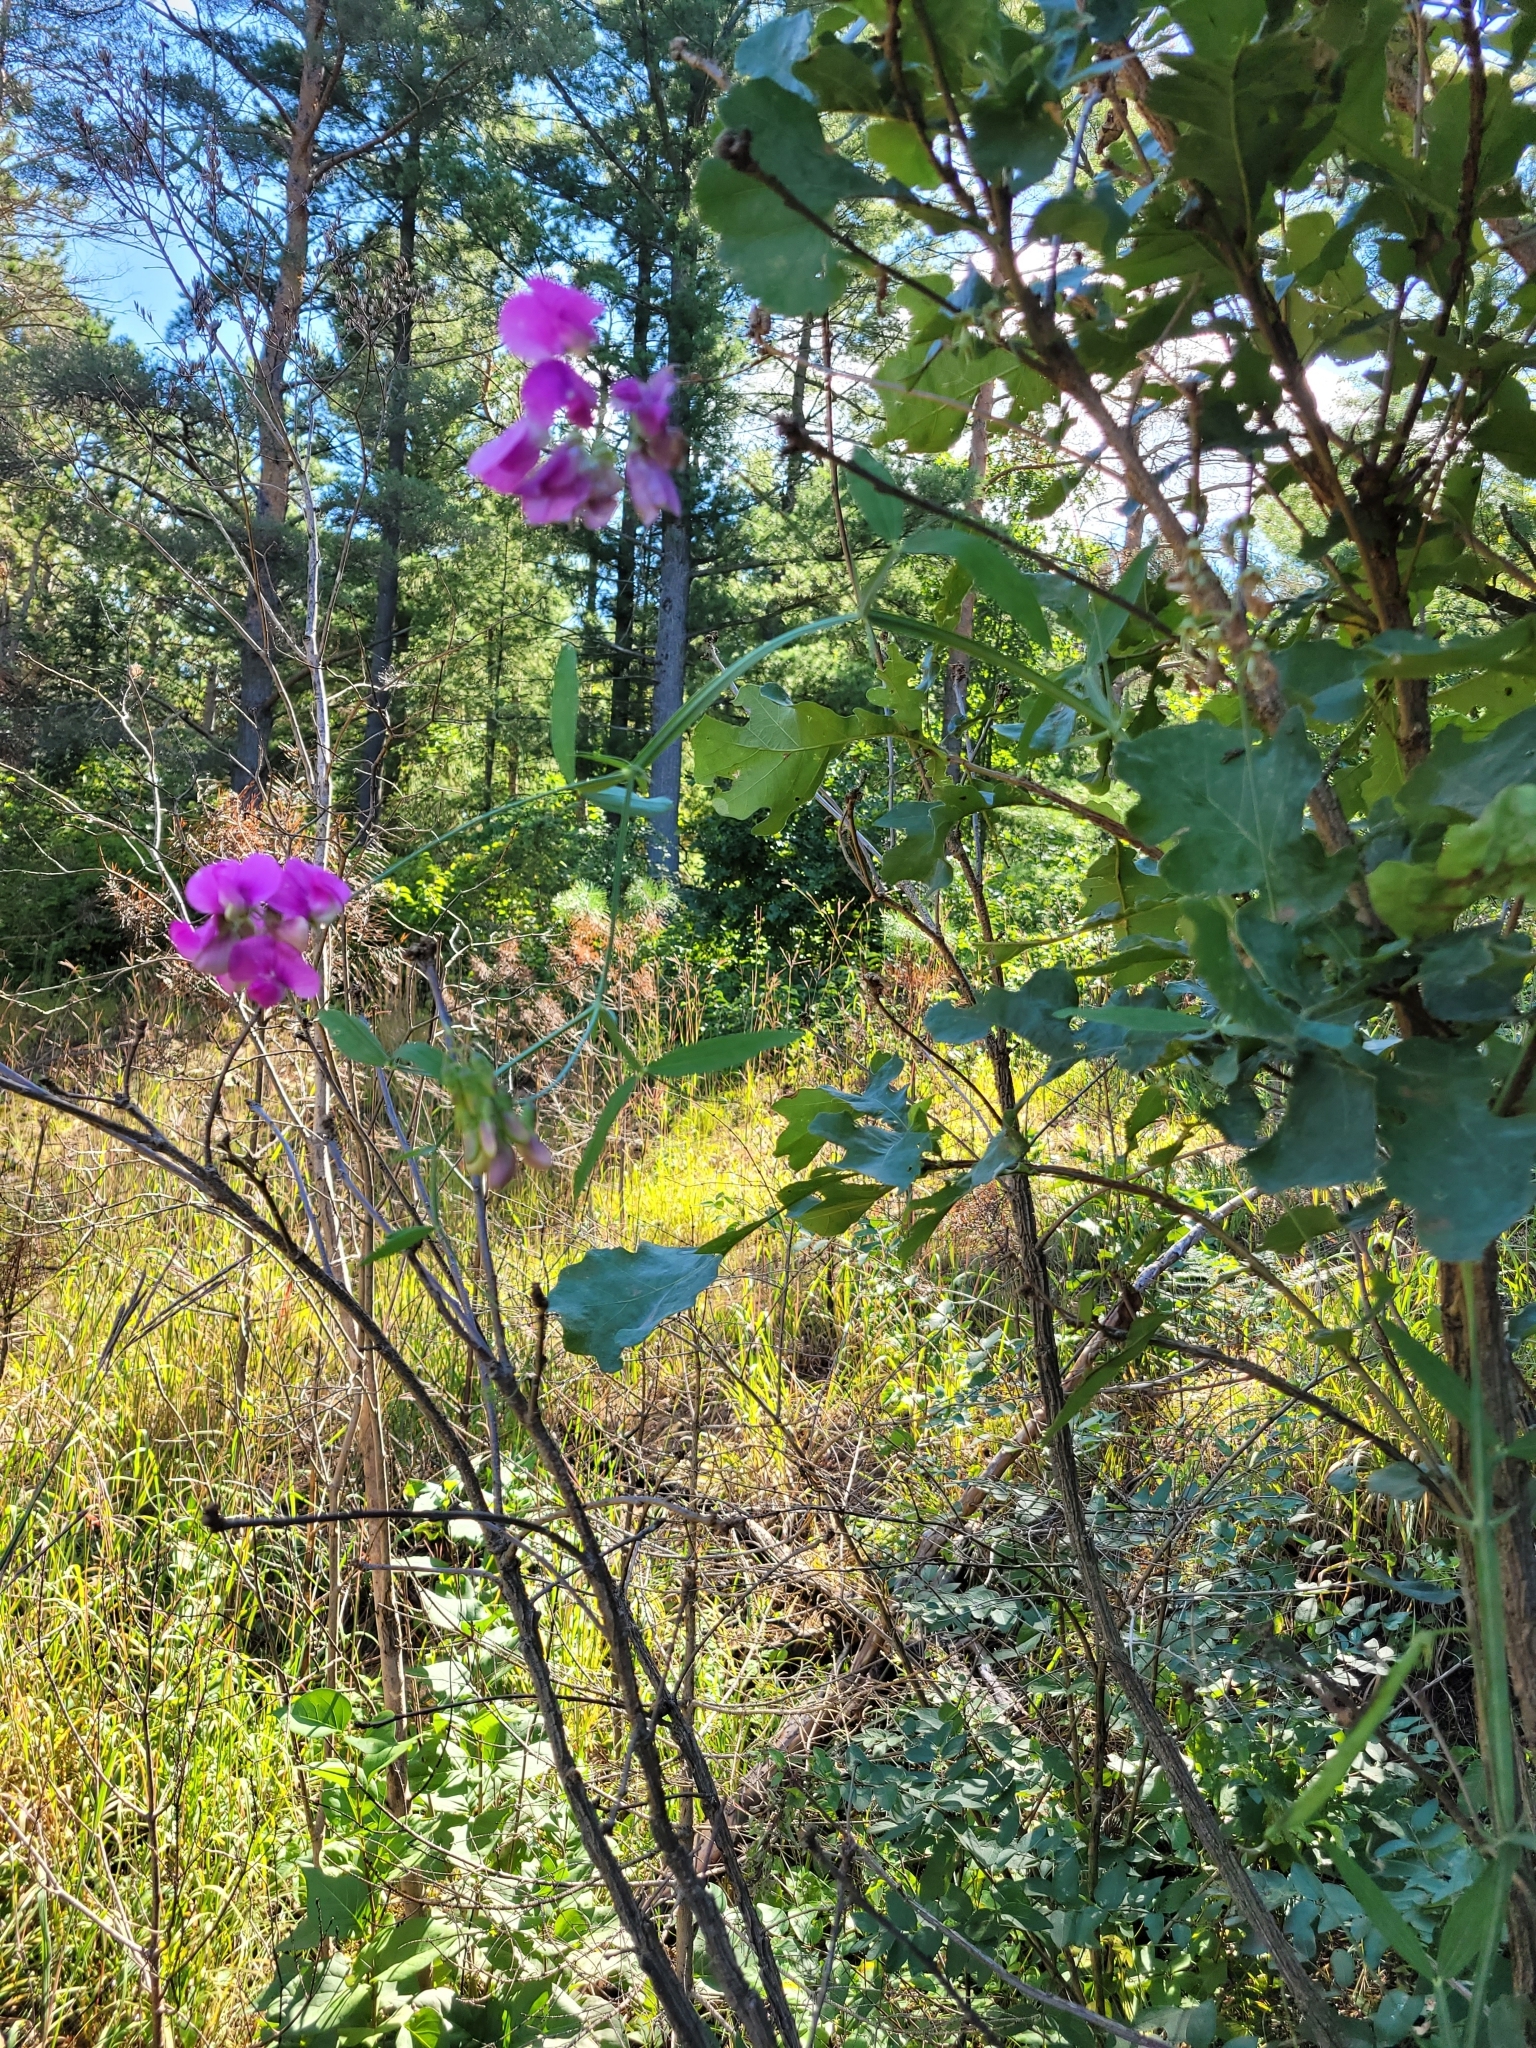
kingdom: Plantae
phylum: Tracheophyta
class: Magnoliopsida
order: Fabales
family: Fabaceae
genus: Lathyrus
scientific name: Lathyrus latifolius
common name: Perennial pea
